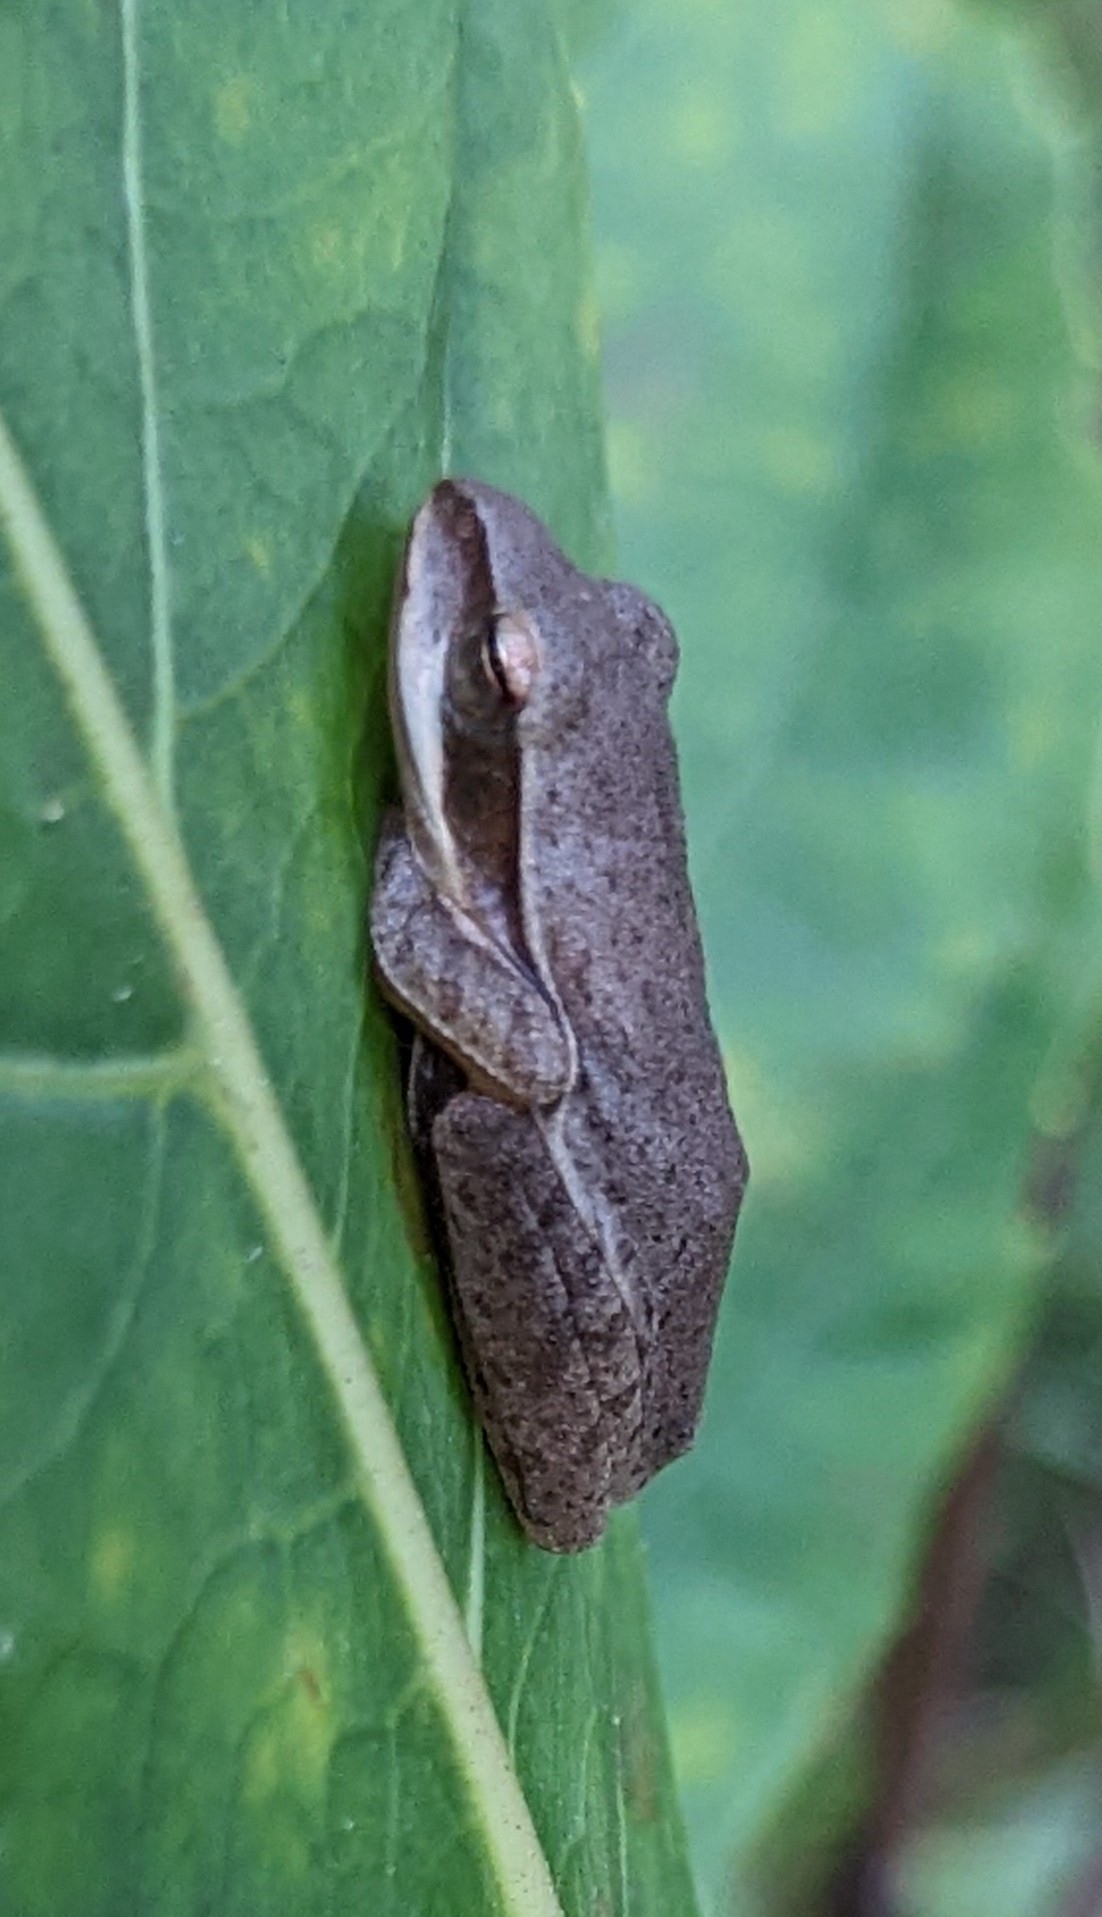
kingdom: Animalia
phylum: Chordata
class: Amphibia
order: Anura
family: Rhacophoridae
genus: Polypedates
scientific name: Polypedates maculatus
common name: Himalayan tree frog
